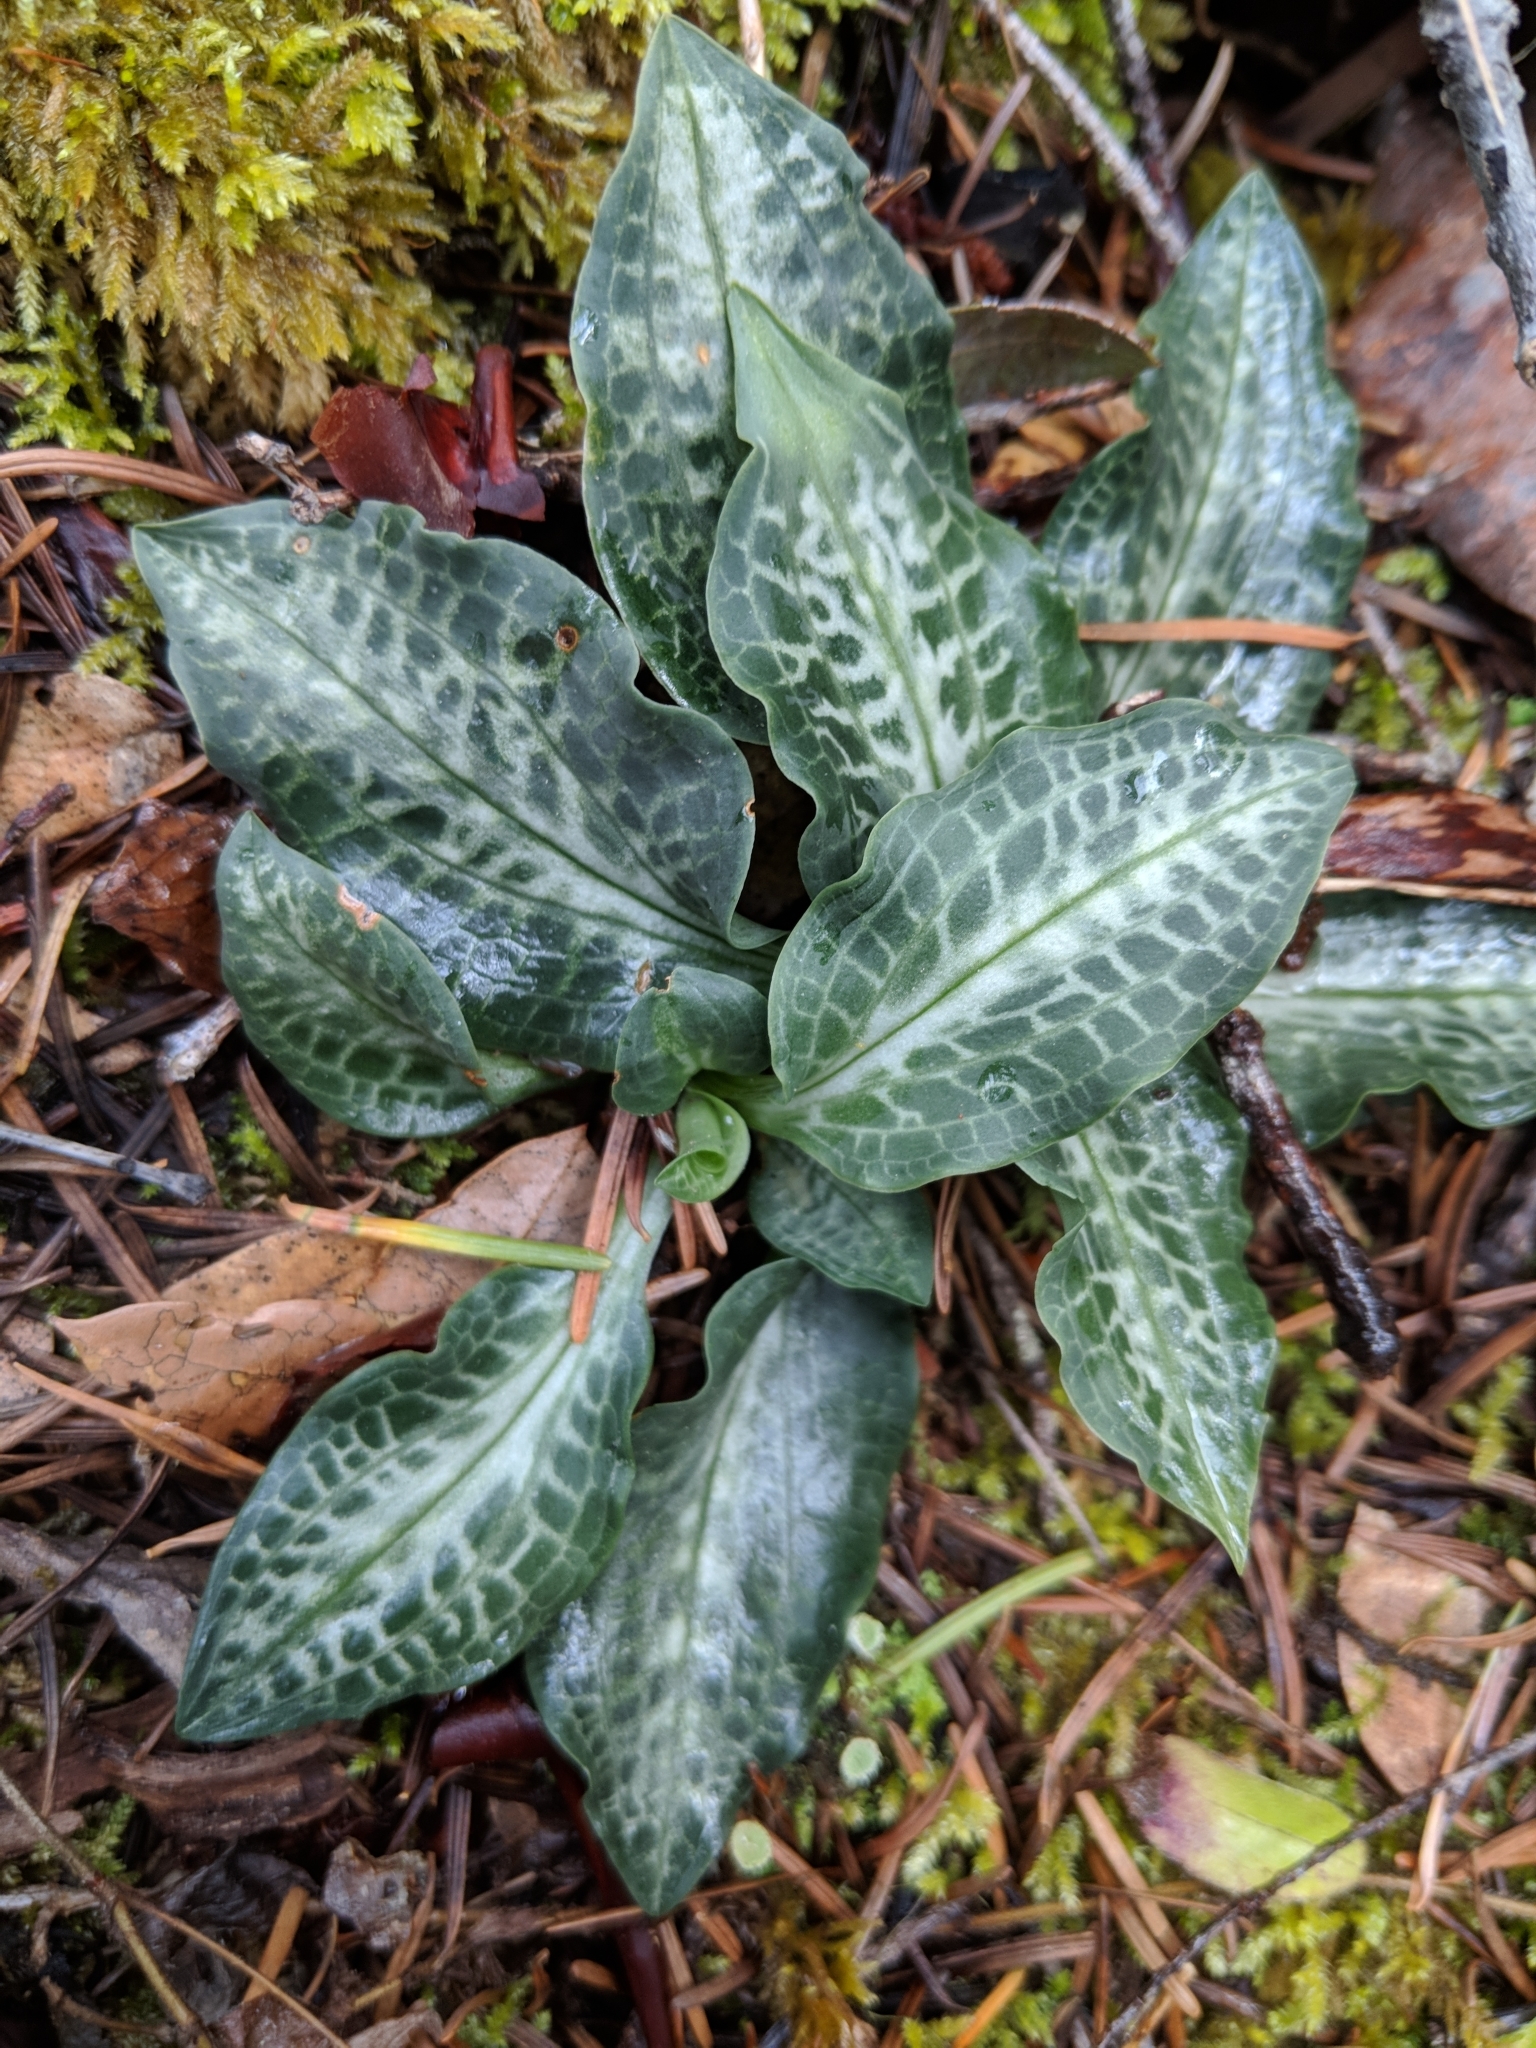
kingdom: Plantae
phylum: Tracheophyta
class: Liliopsida
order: Asparagales
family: Orchidaceae
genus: Goodyera
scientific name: Goodyera oblongifolia
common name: Giant rattlesnake-plantain
